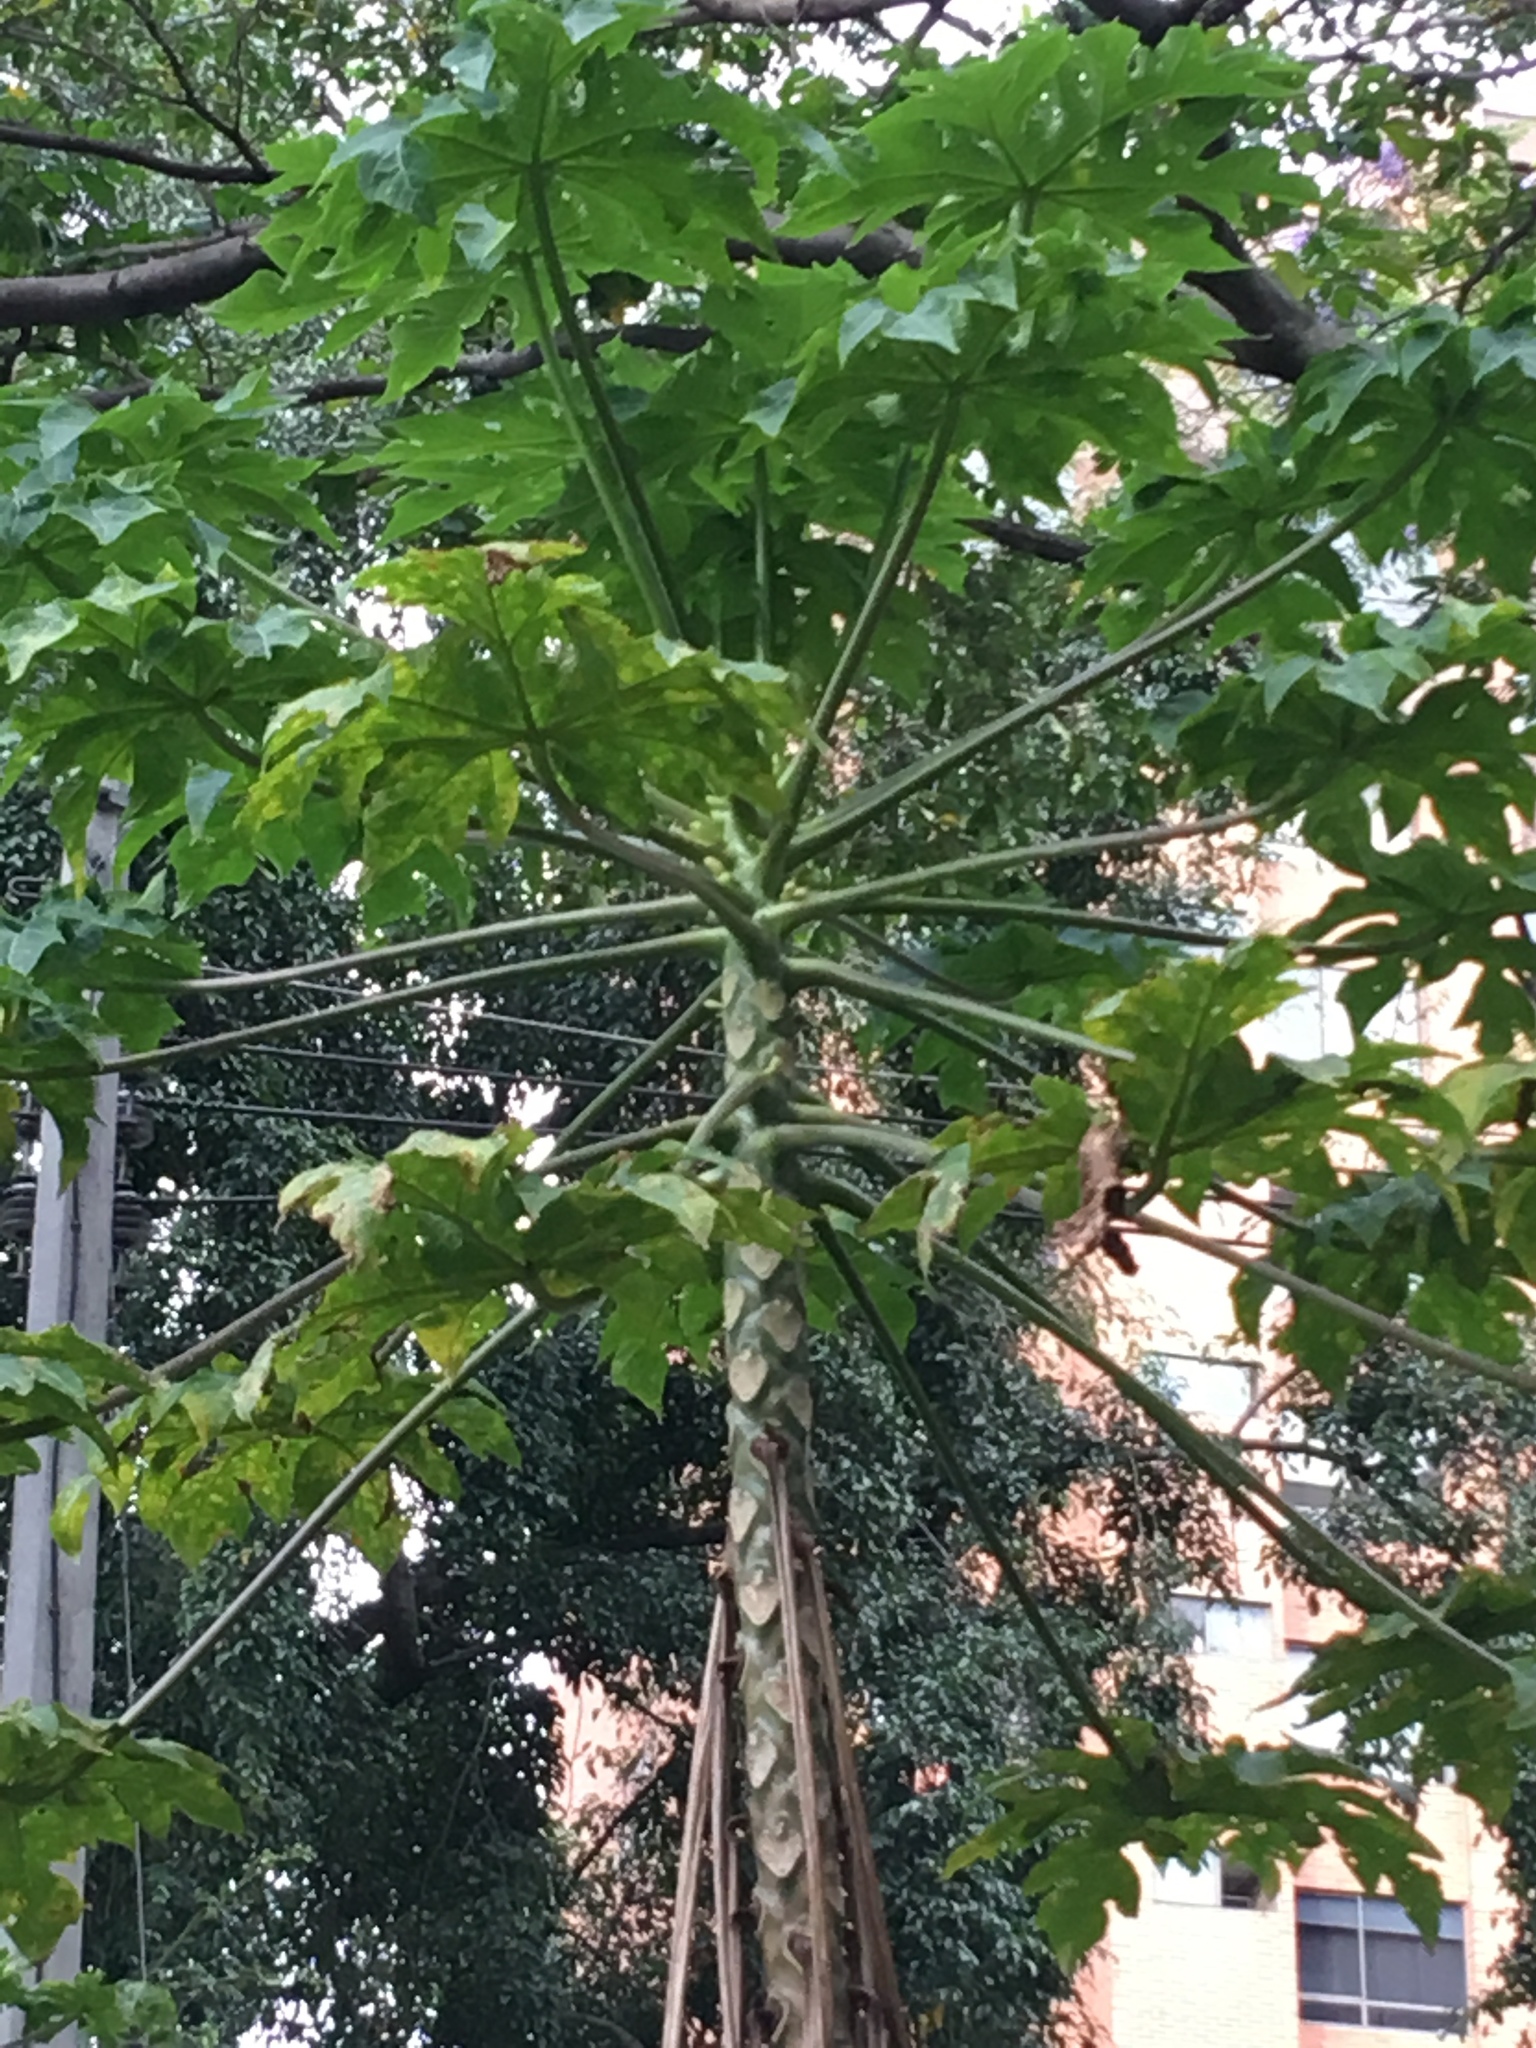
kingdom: Plantae
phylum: Tracheophyta
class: Magnoliopsida
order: Brassicales
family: Caricaceae
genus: Carica
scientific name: Carica papaya
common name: Papaya
